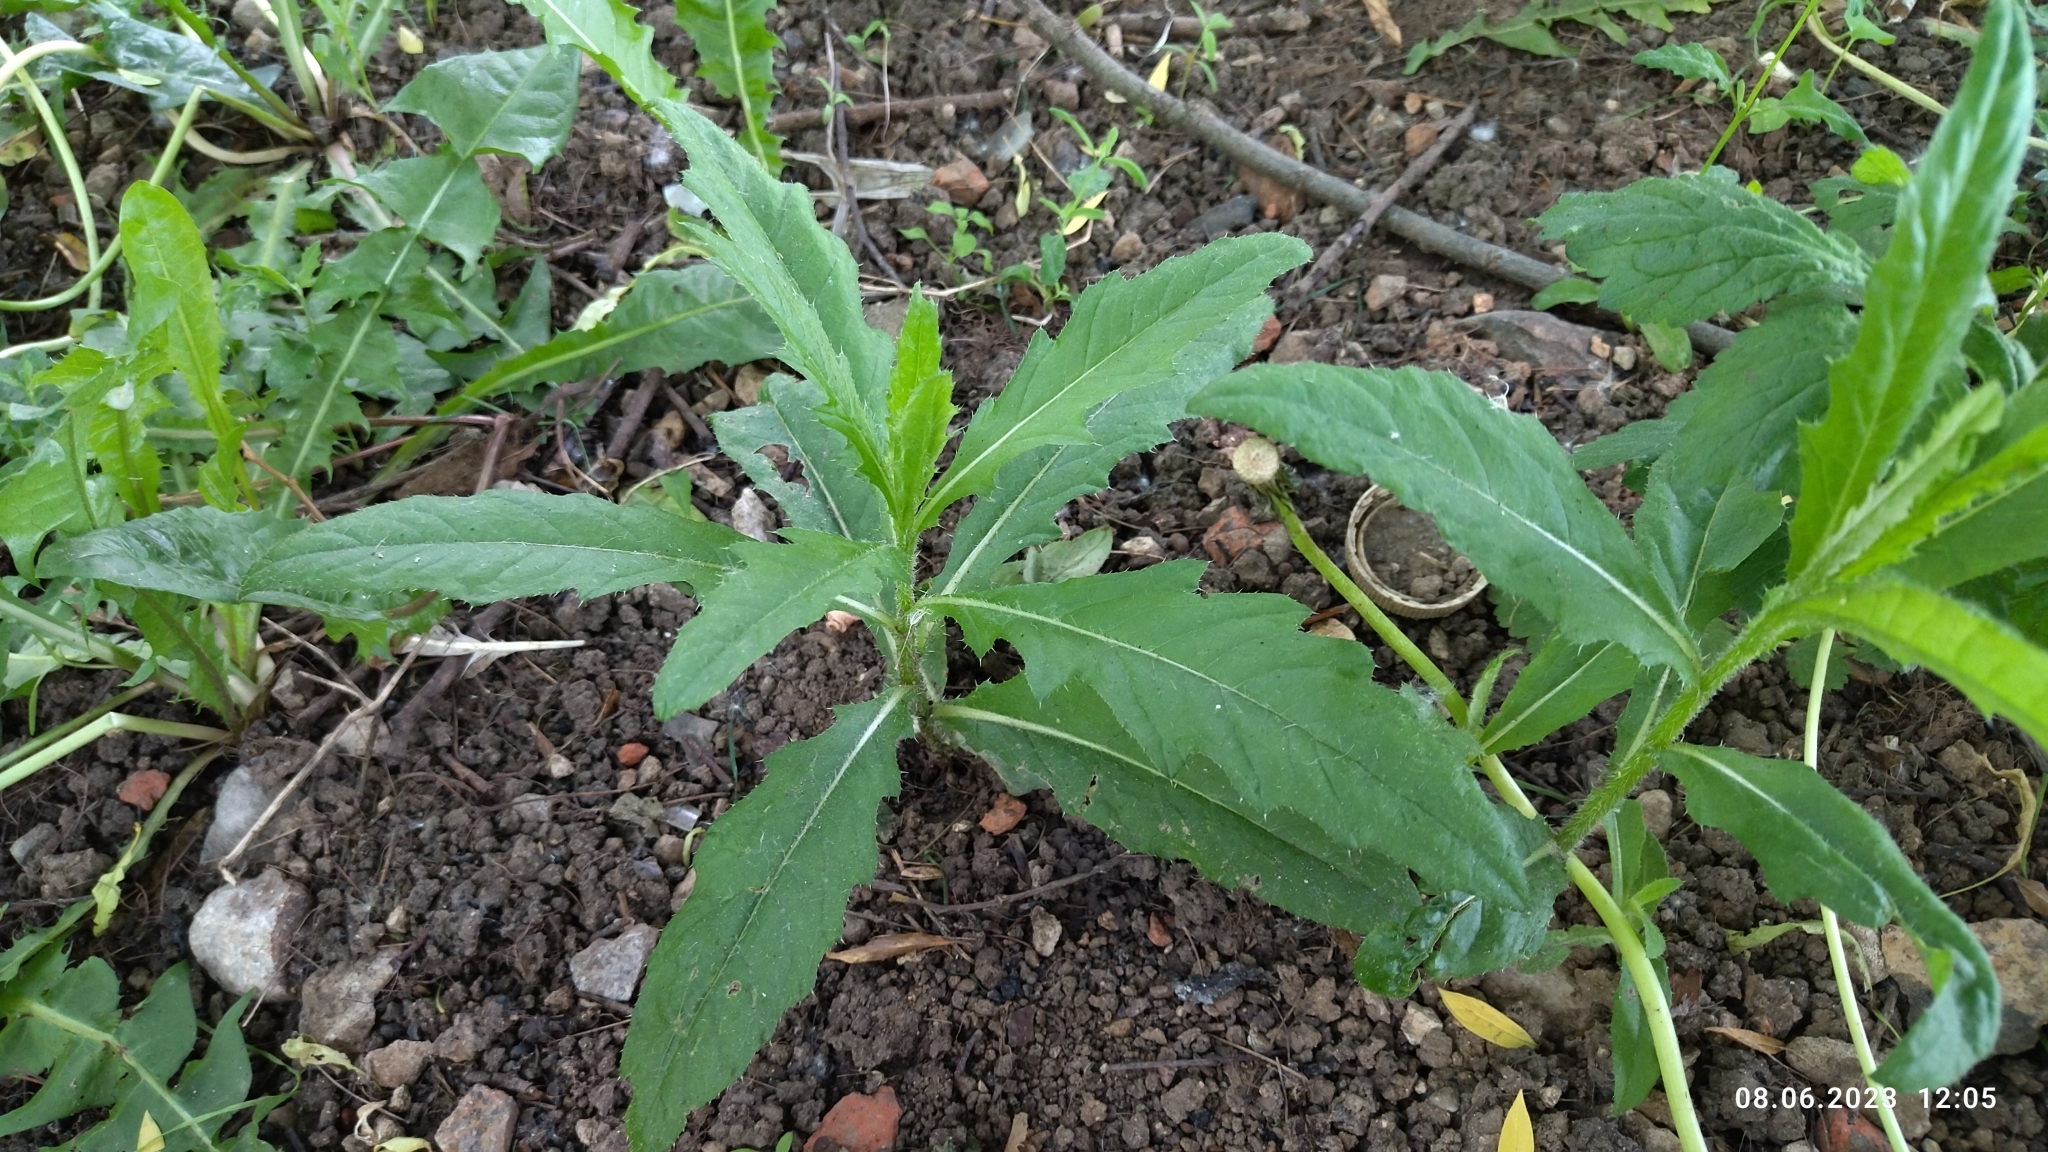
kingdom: Plantae
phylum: Tracheophyta
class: Magnoliopsida
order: Asterales
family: Asteraceae
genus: Cirsium
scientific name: Cirsium arvense
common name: Creeping thistle
